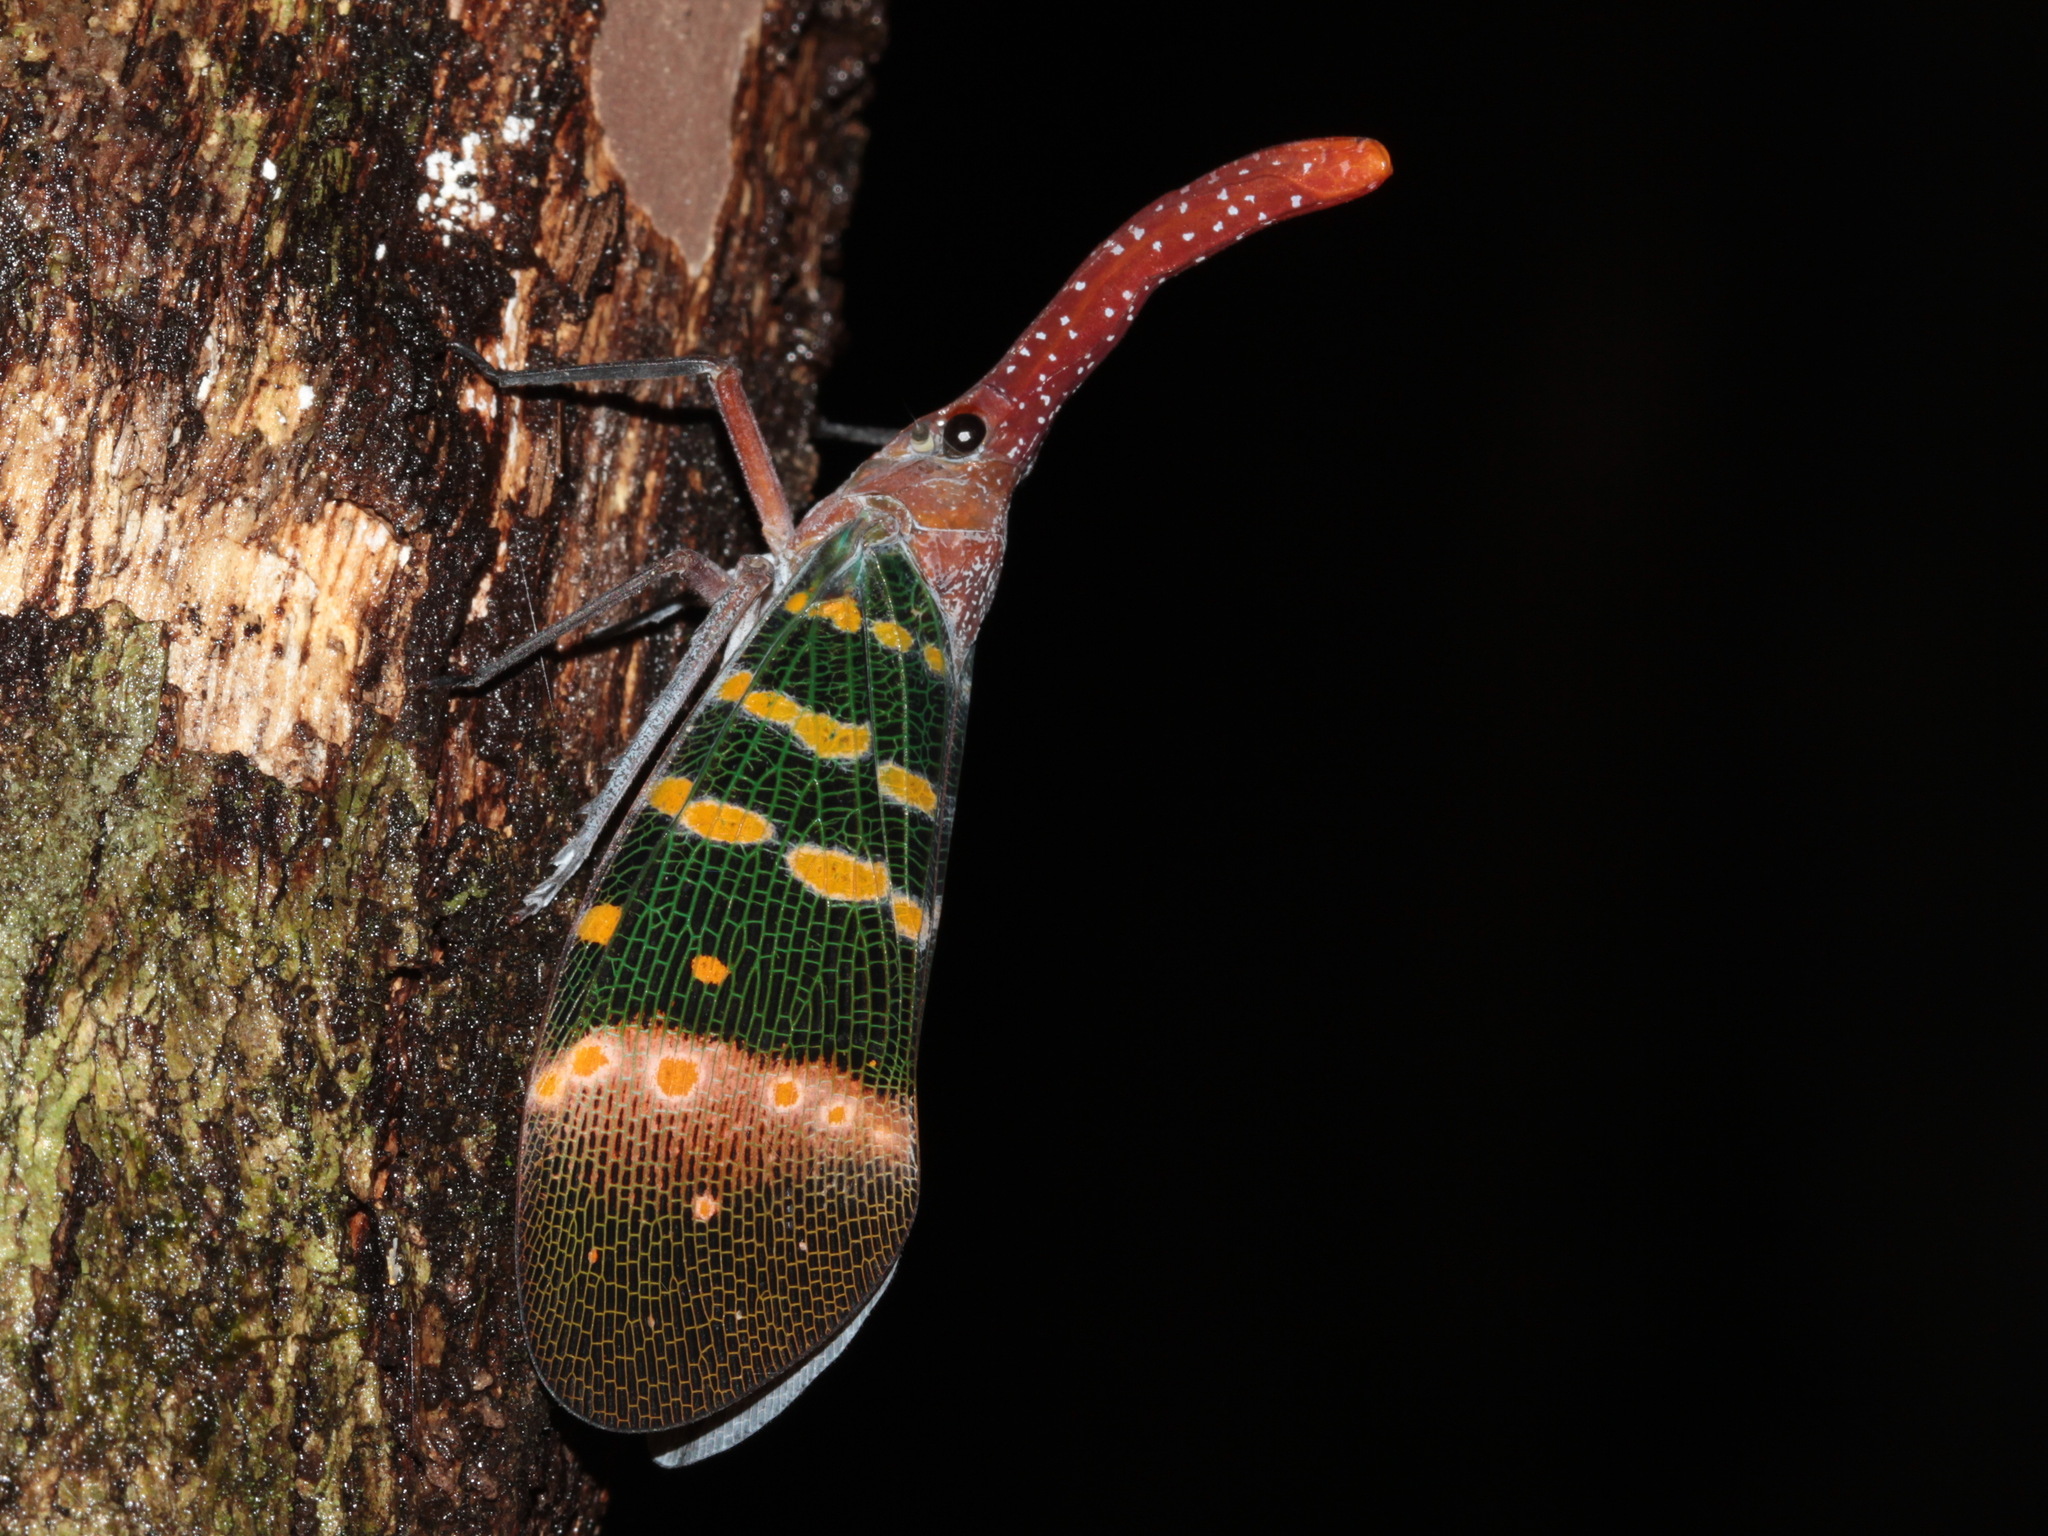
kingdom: Animalia
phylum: Arthropoda
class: Insecta
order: Hemiptera
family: Fulgoridae
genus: Pyrops
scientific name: Pyrops karenius
